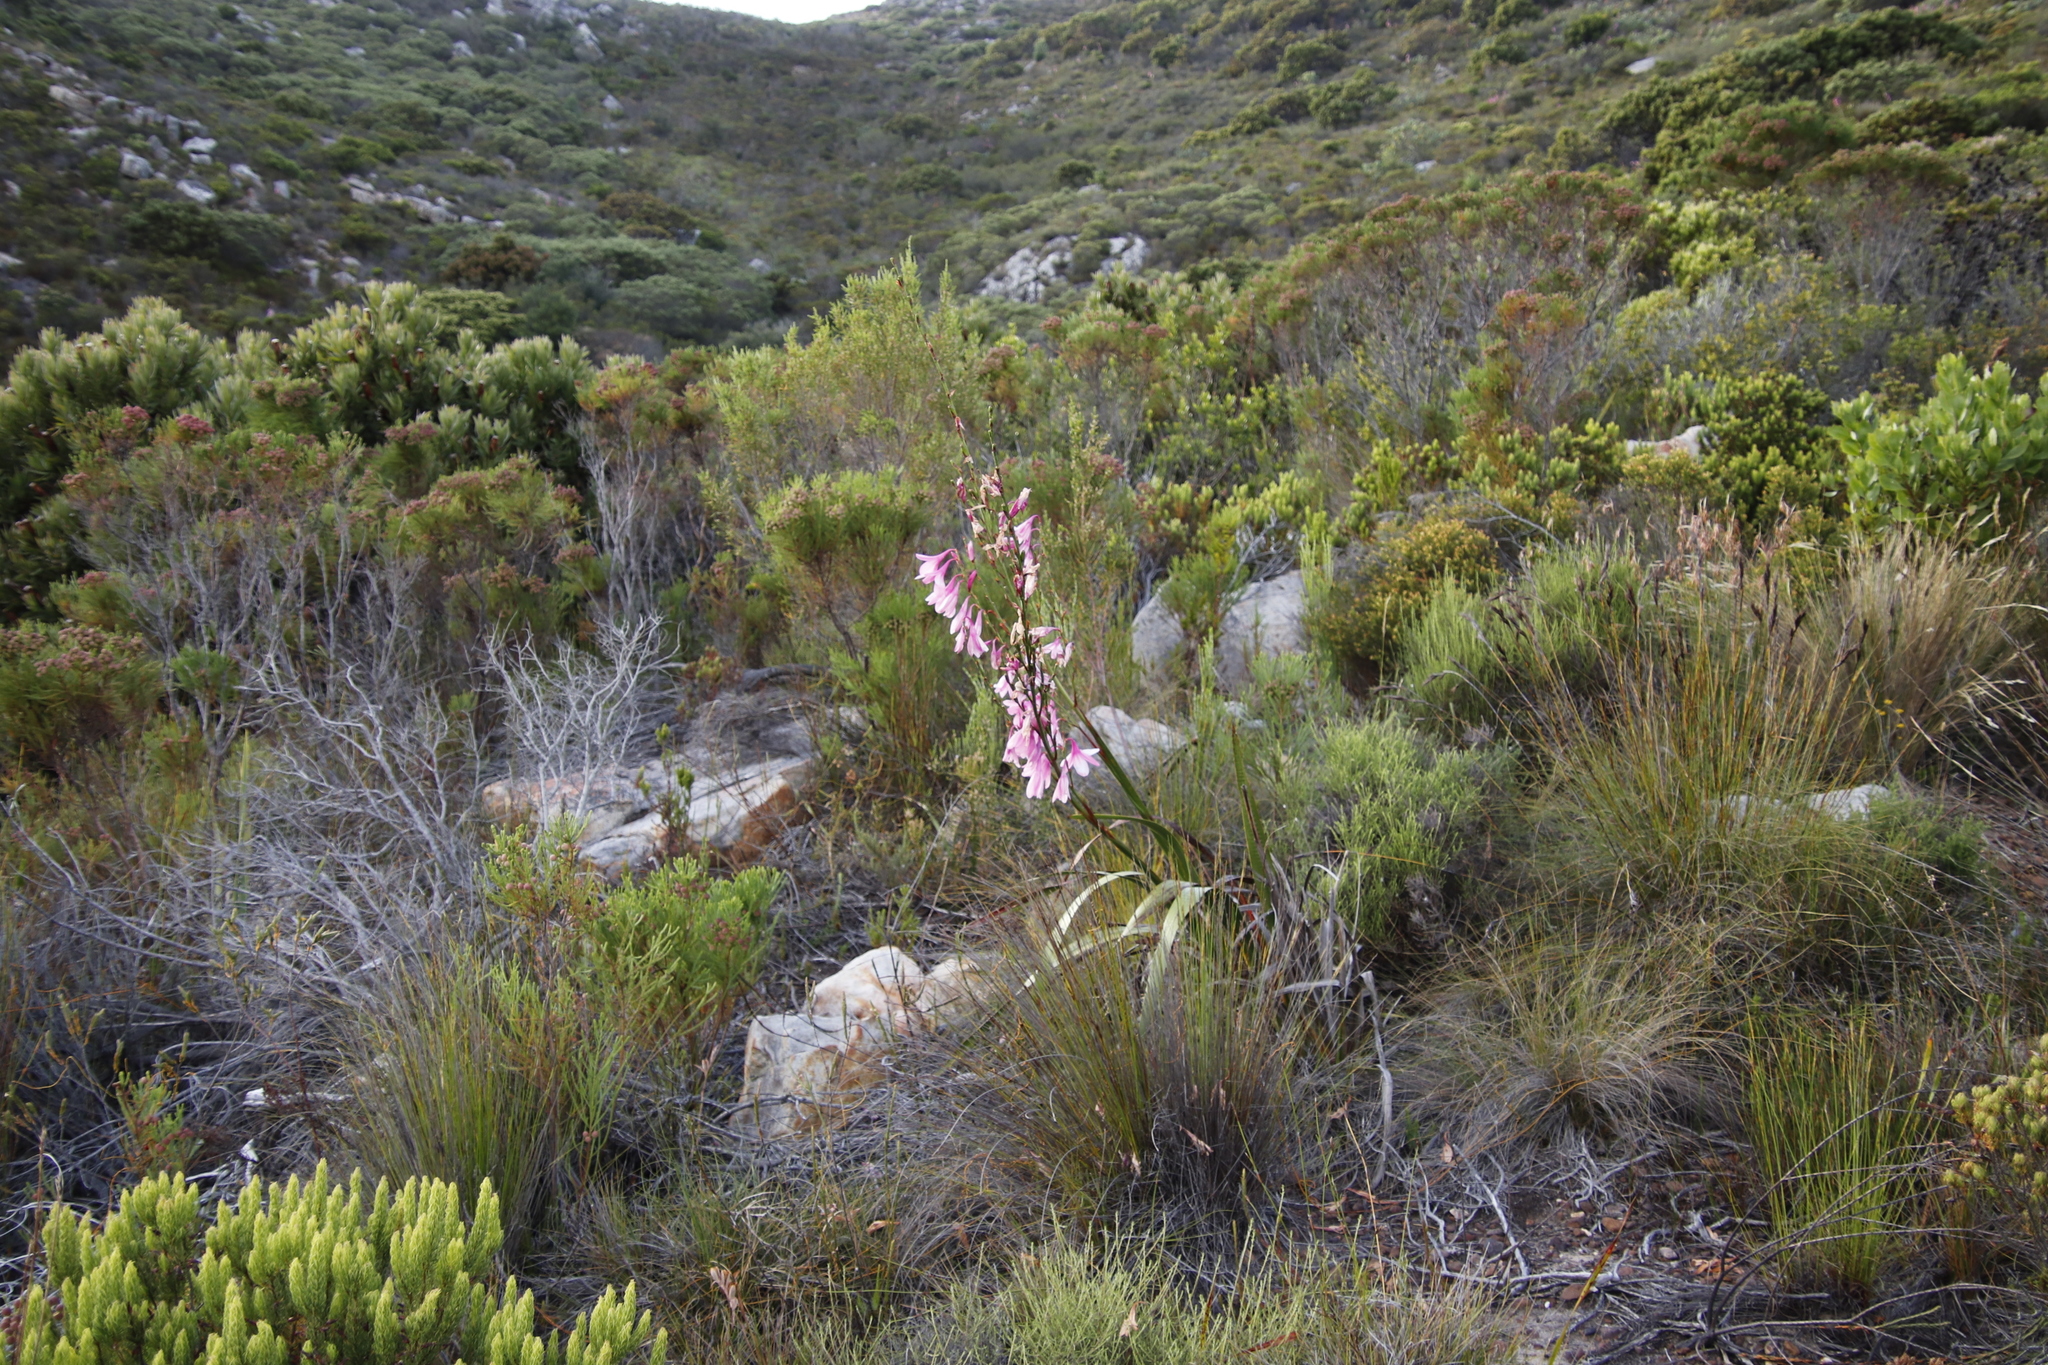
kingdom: Plantae
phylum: Tracheophyta
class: Liliopsida
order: Asparagales
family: Iridaceae
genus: Watsonia
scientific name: Watsonia borbonica
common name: Bugle-lily
